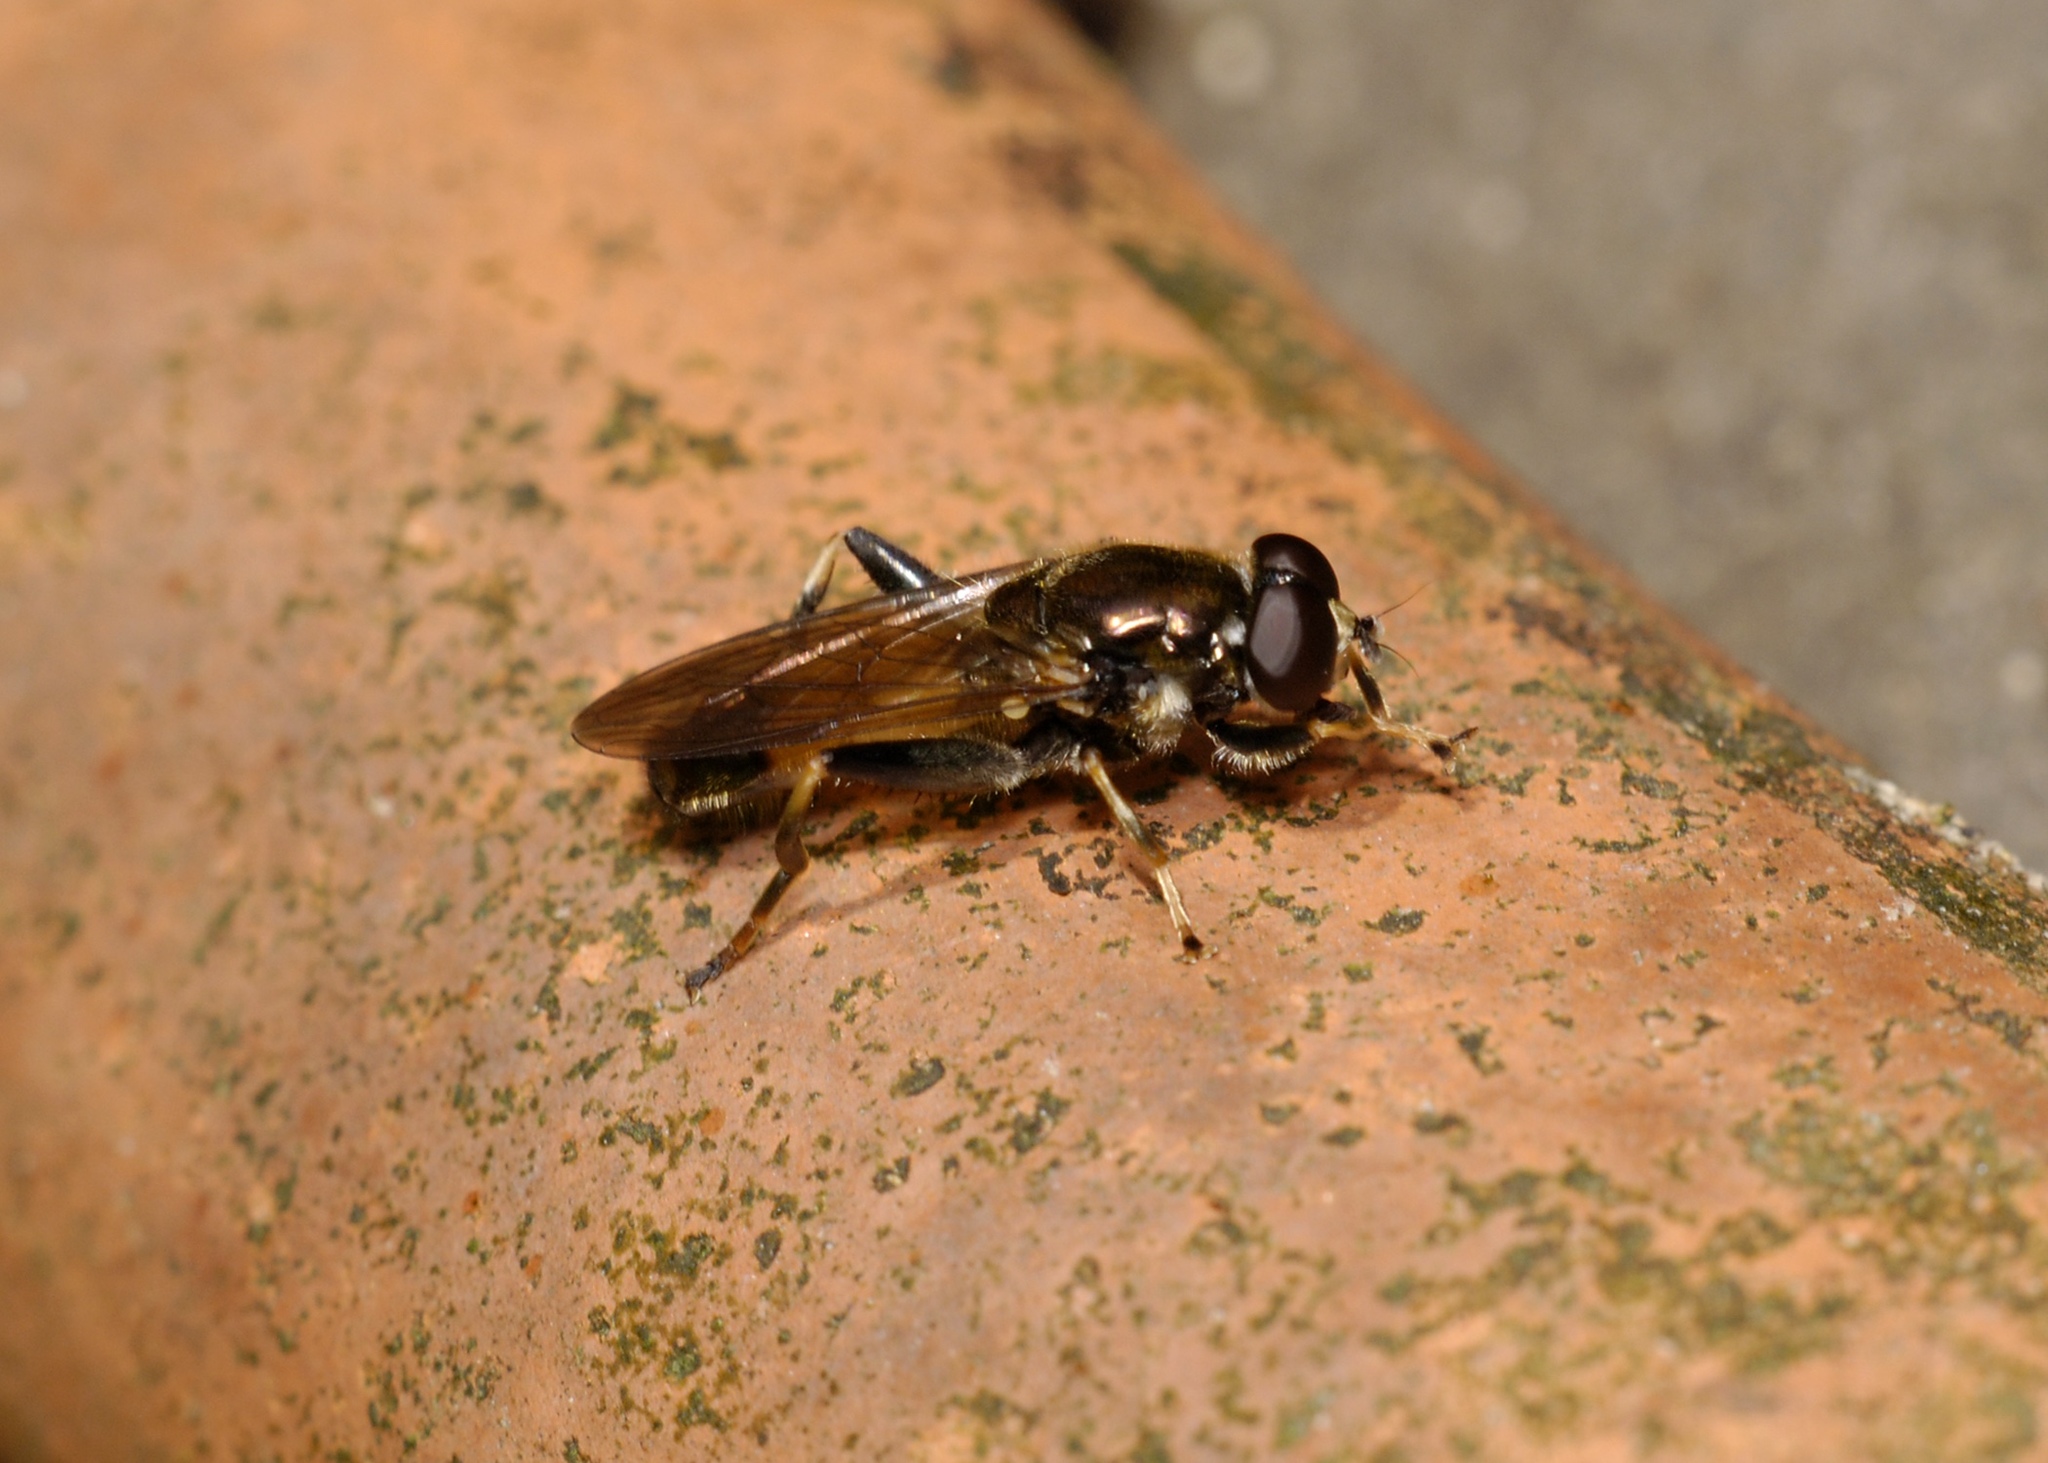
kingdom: Animalia
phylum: Arthropoda
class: Insecta
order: Diptera
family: Syrphidae
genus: Xylota
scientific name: Xylota segnis
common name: Brown-toed forest fly
